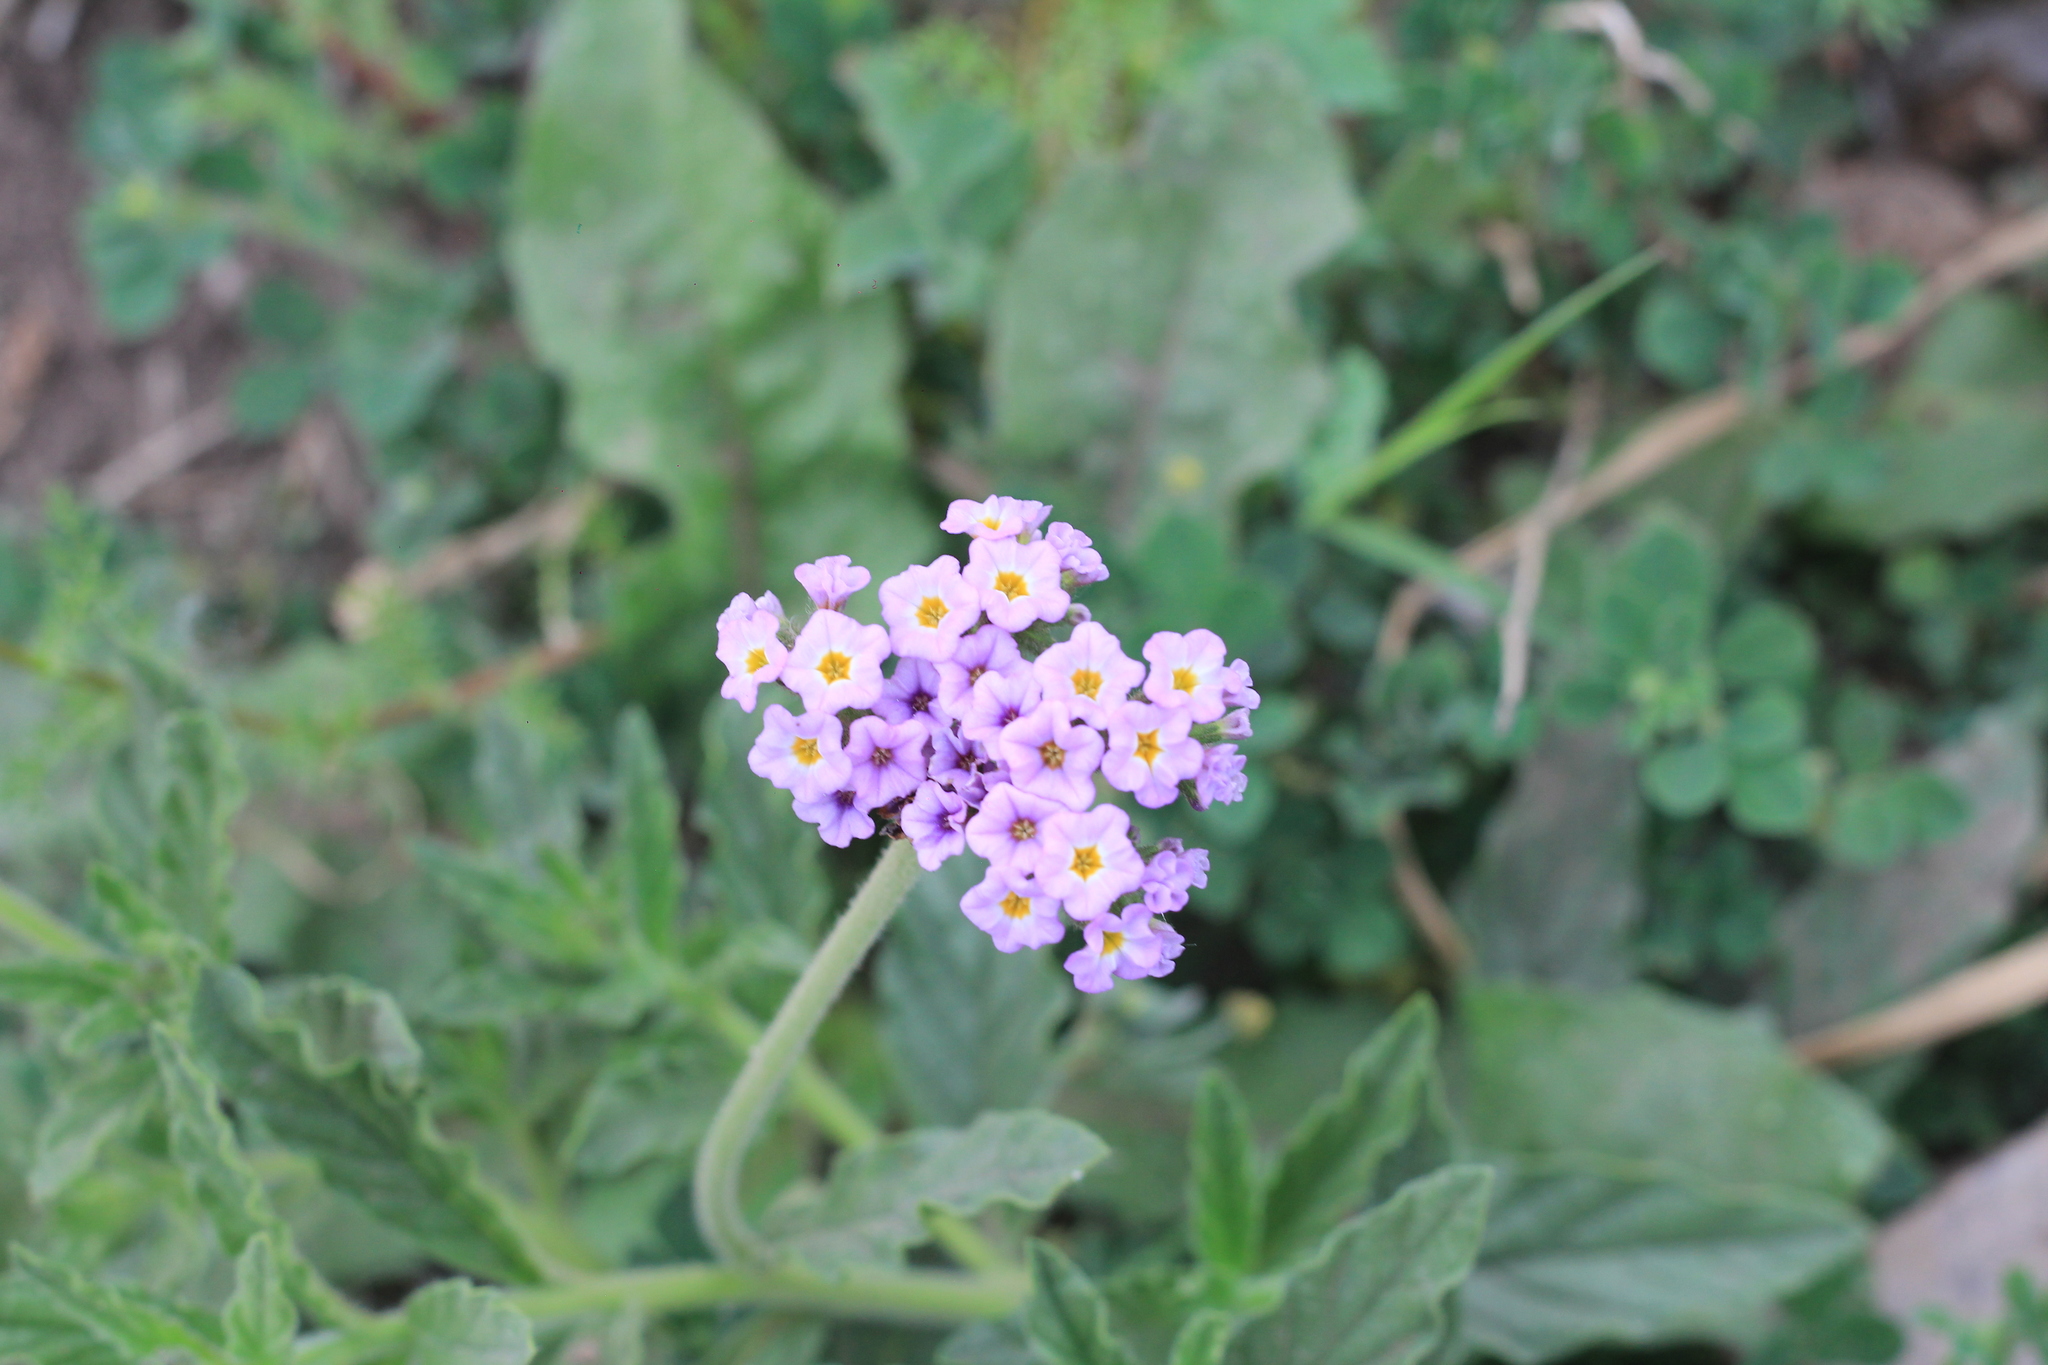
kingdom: Plantae
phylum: Tracheophyta
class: Magnoliopsida
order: Boraginales
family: Heliotropiaceae
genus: Heliotropium
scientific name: Heliotropium amplexicaule
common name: Clasping heliotrope
